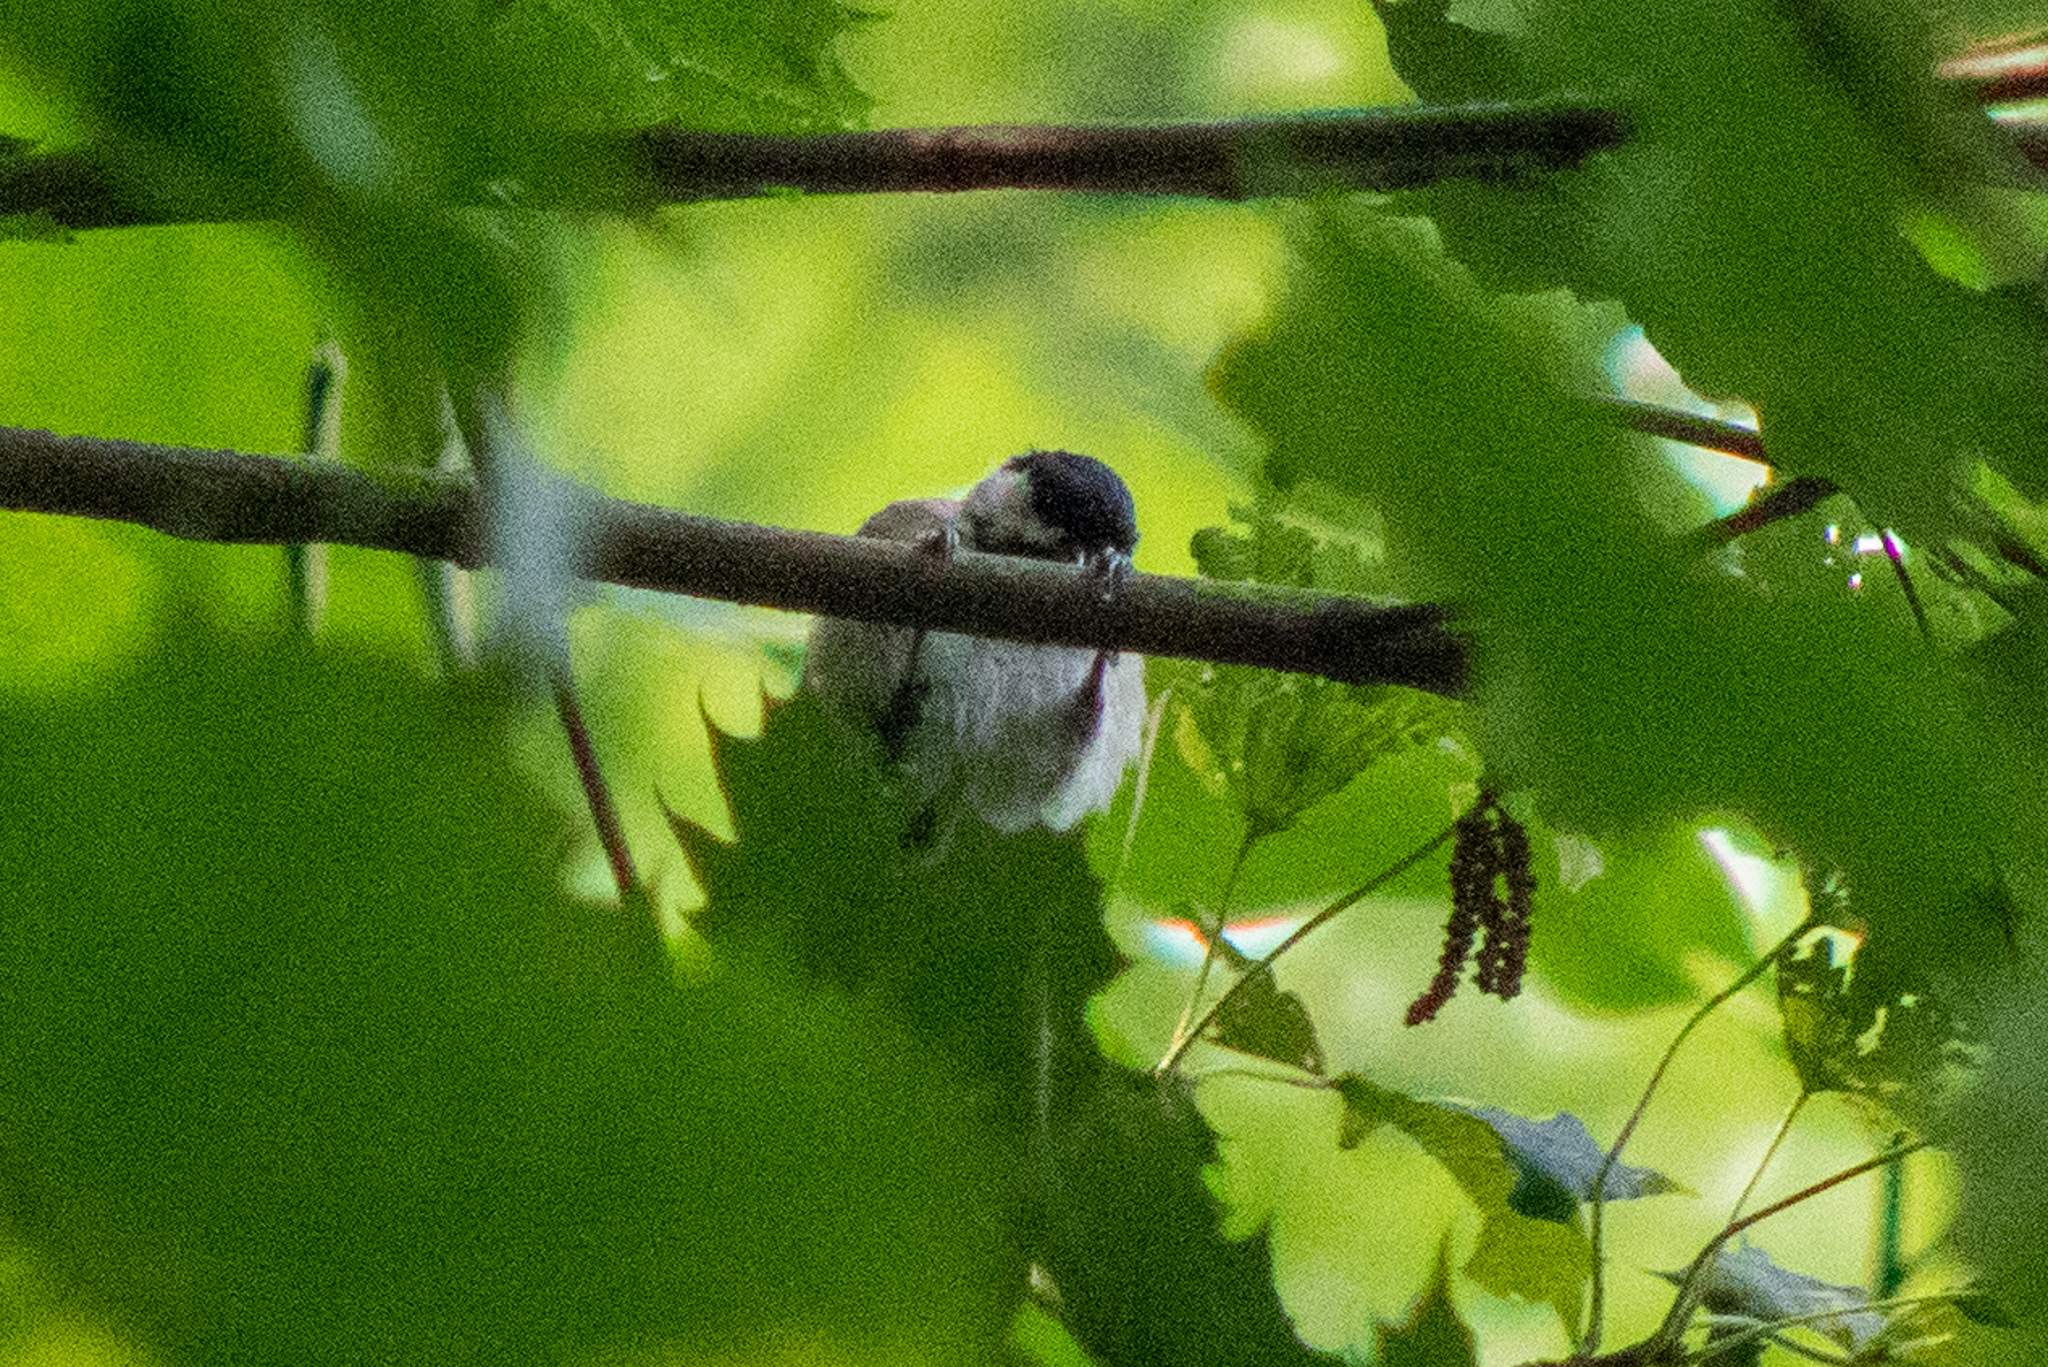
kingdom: Animalia
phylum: Chordata
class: Aves
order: Passeriformes
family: Paridae
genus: Poecile
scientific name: Poecile carolinensis
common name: Carolina chickadee
